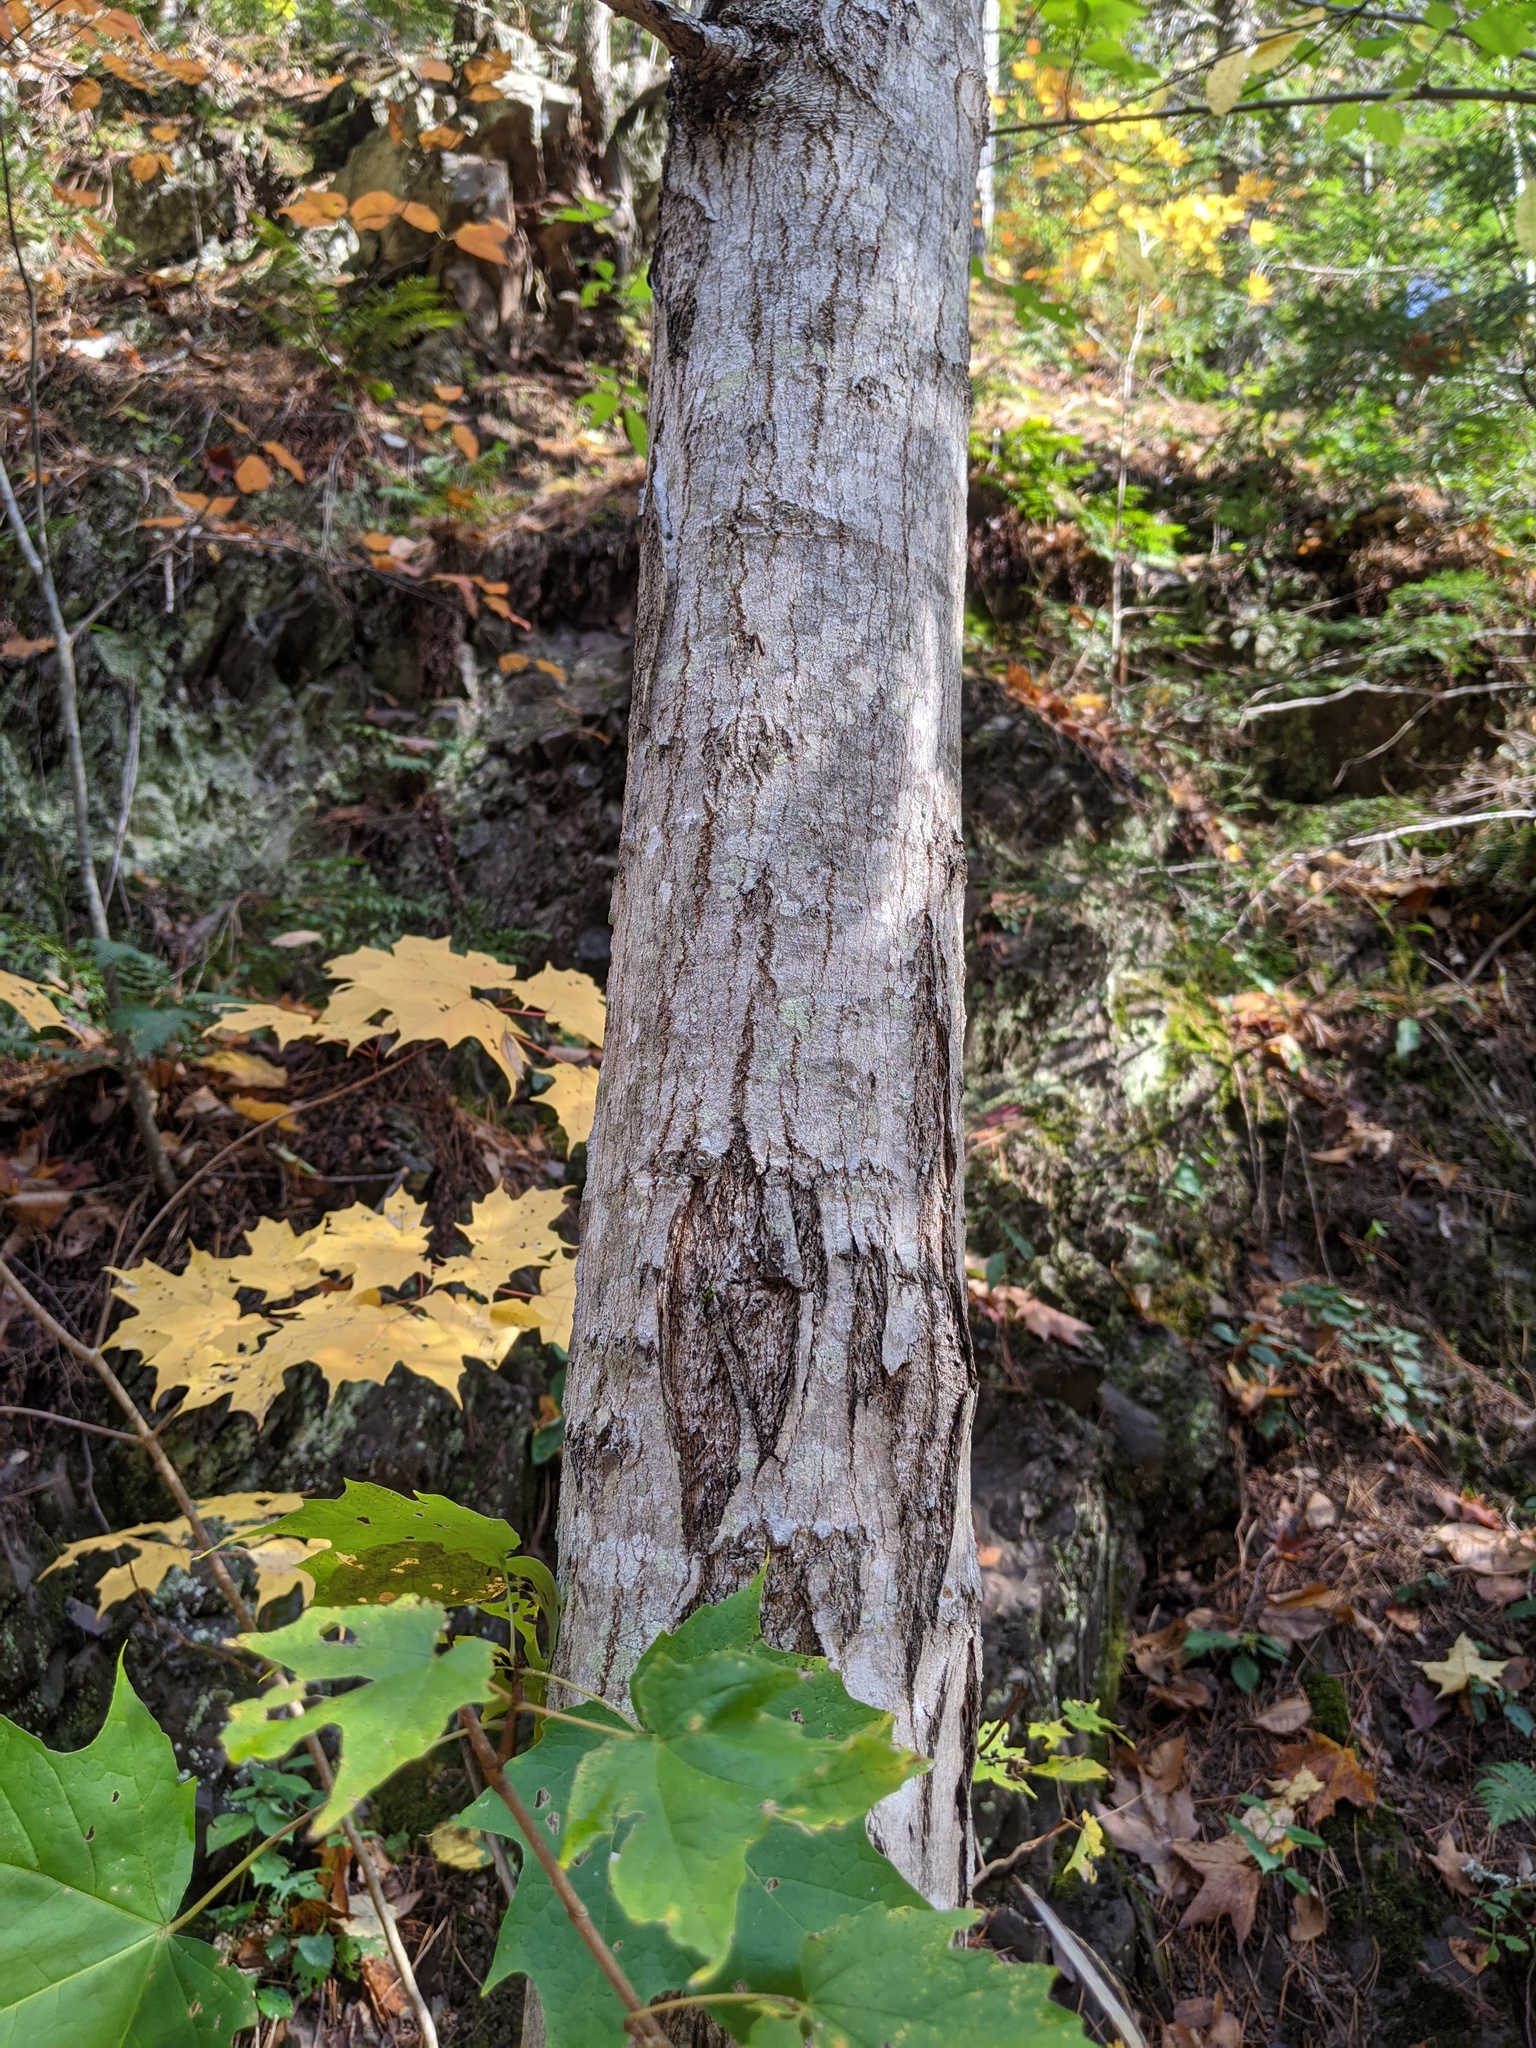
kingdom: Plantae
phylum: Tracheophyta
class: Magnoliopsida
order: Sapindales
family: Sapindaceae
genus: Acer
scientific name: Acer saccharum
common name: Sugar maple
